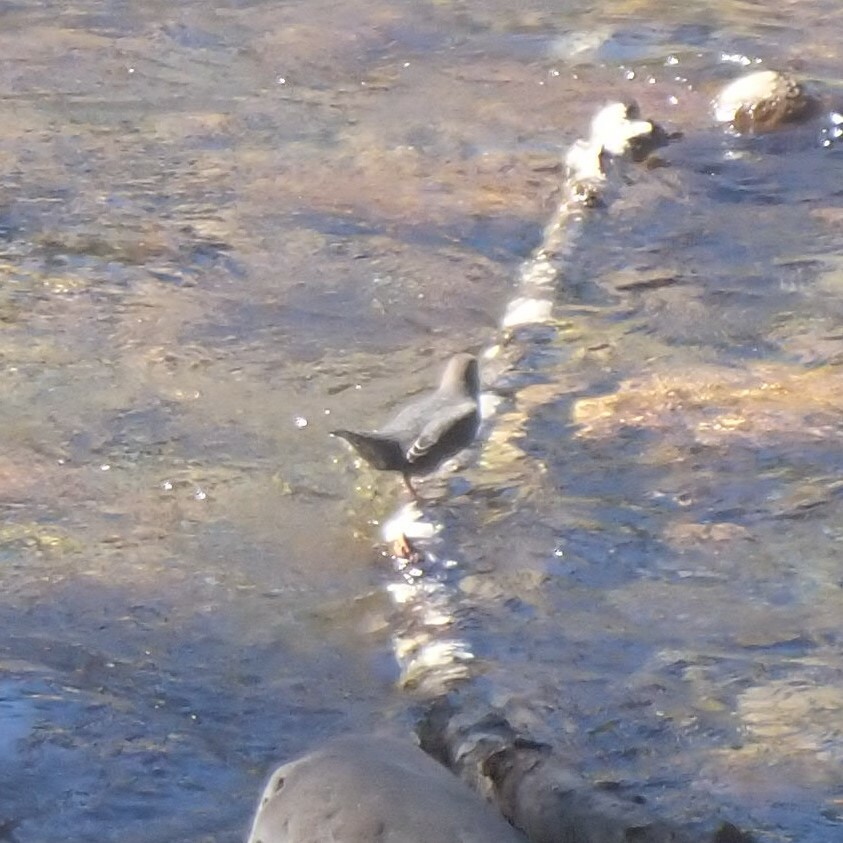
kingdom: Animalia
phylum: Chordata
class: Aves
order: Passeriformes
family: Cinclidae
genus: Cinclus
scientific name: Cinclus mexicanus
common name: American dipper
